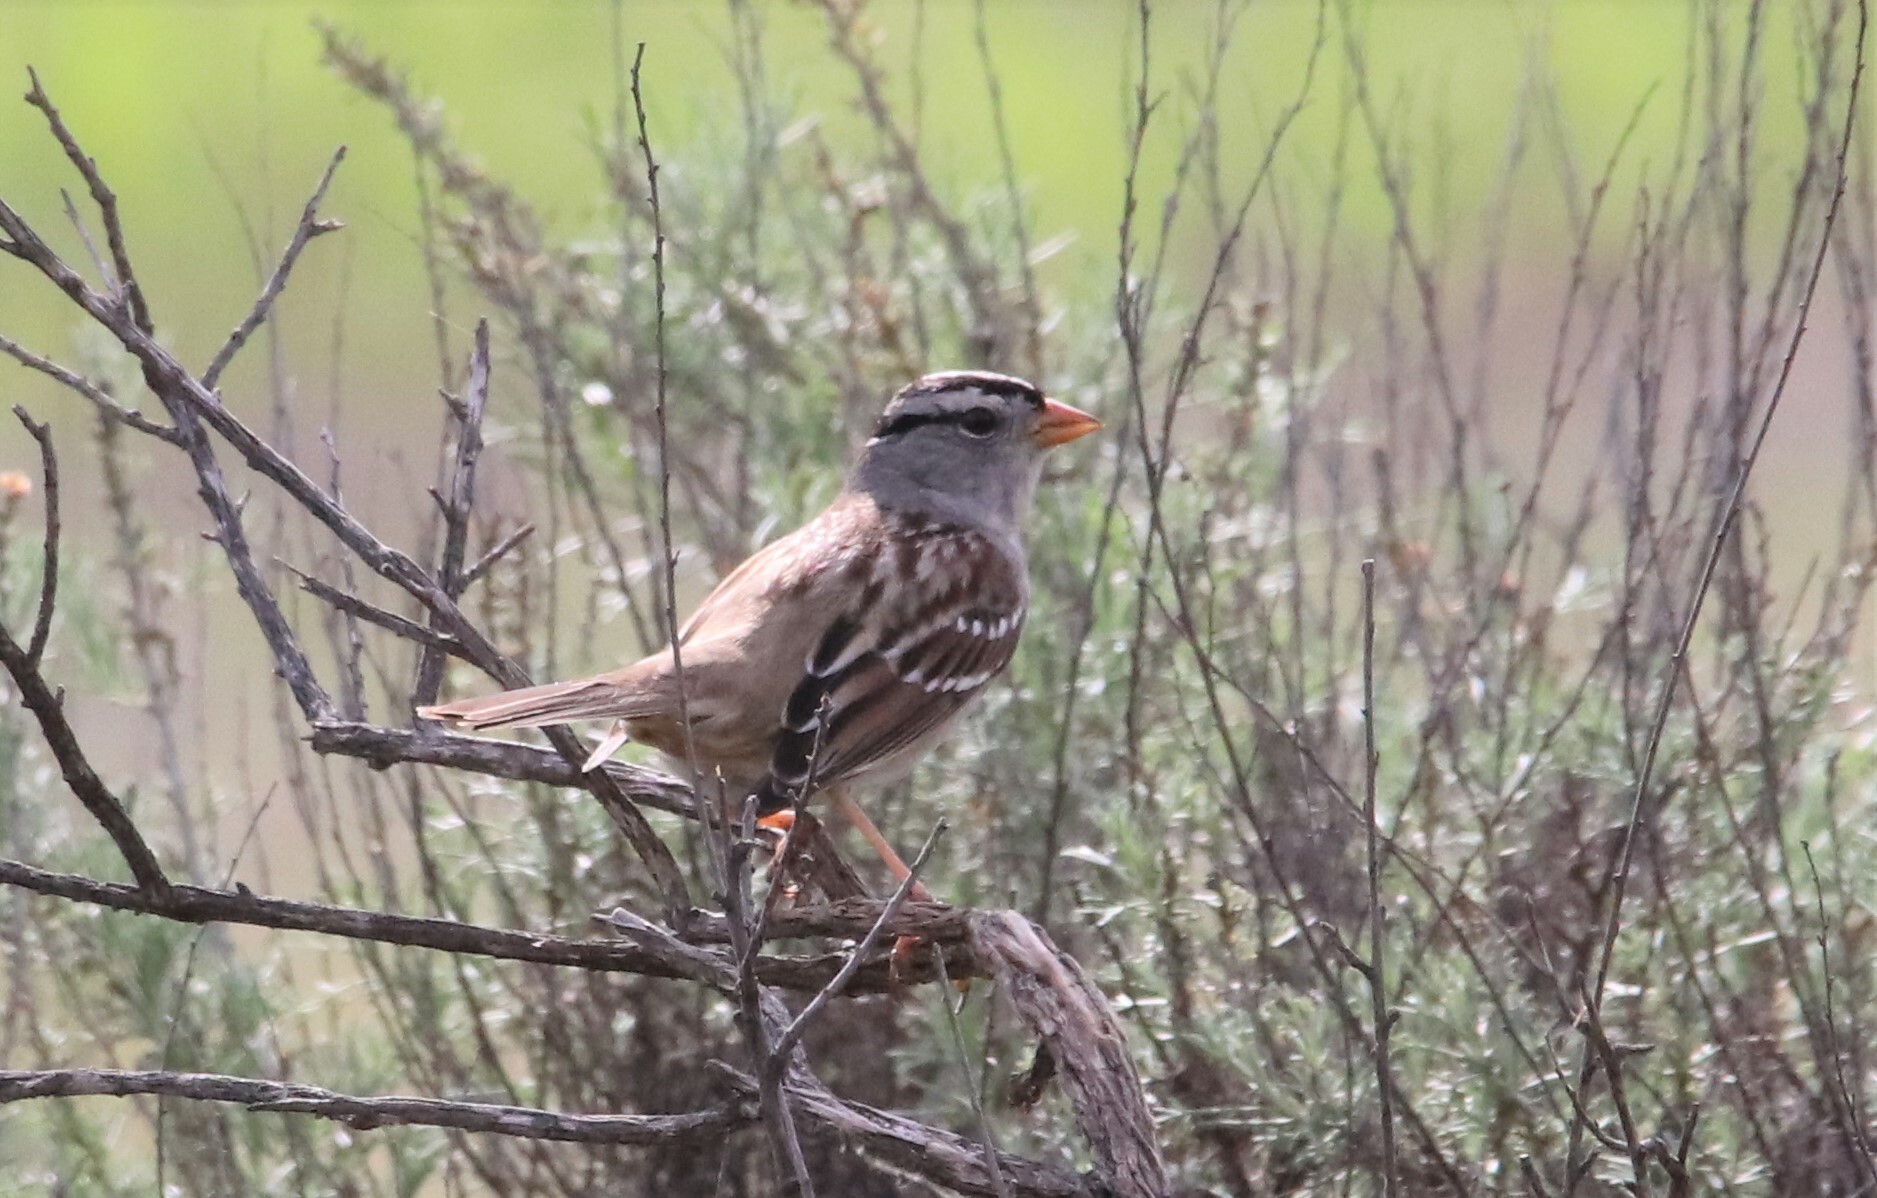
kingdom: Animalia
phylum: Chordata
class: Aves
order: Passeriformes
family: Passerellidae
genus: Zonotrichia
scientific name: Zonotrichia leucophrys
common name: White-crowned sparrow
